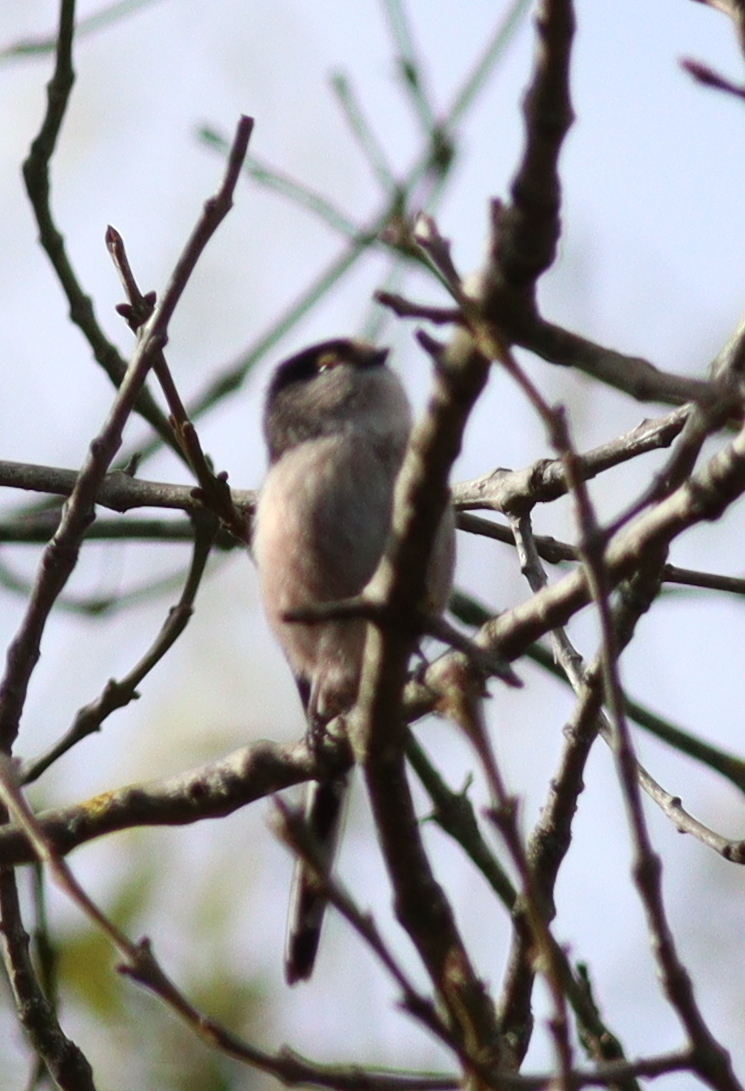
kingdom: Animalia
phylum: Chordata
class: Aves
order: Passeriformes
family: Aegithalidae
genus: Aegithalos
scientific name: Aegithalos caudatus
